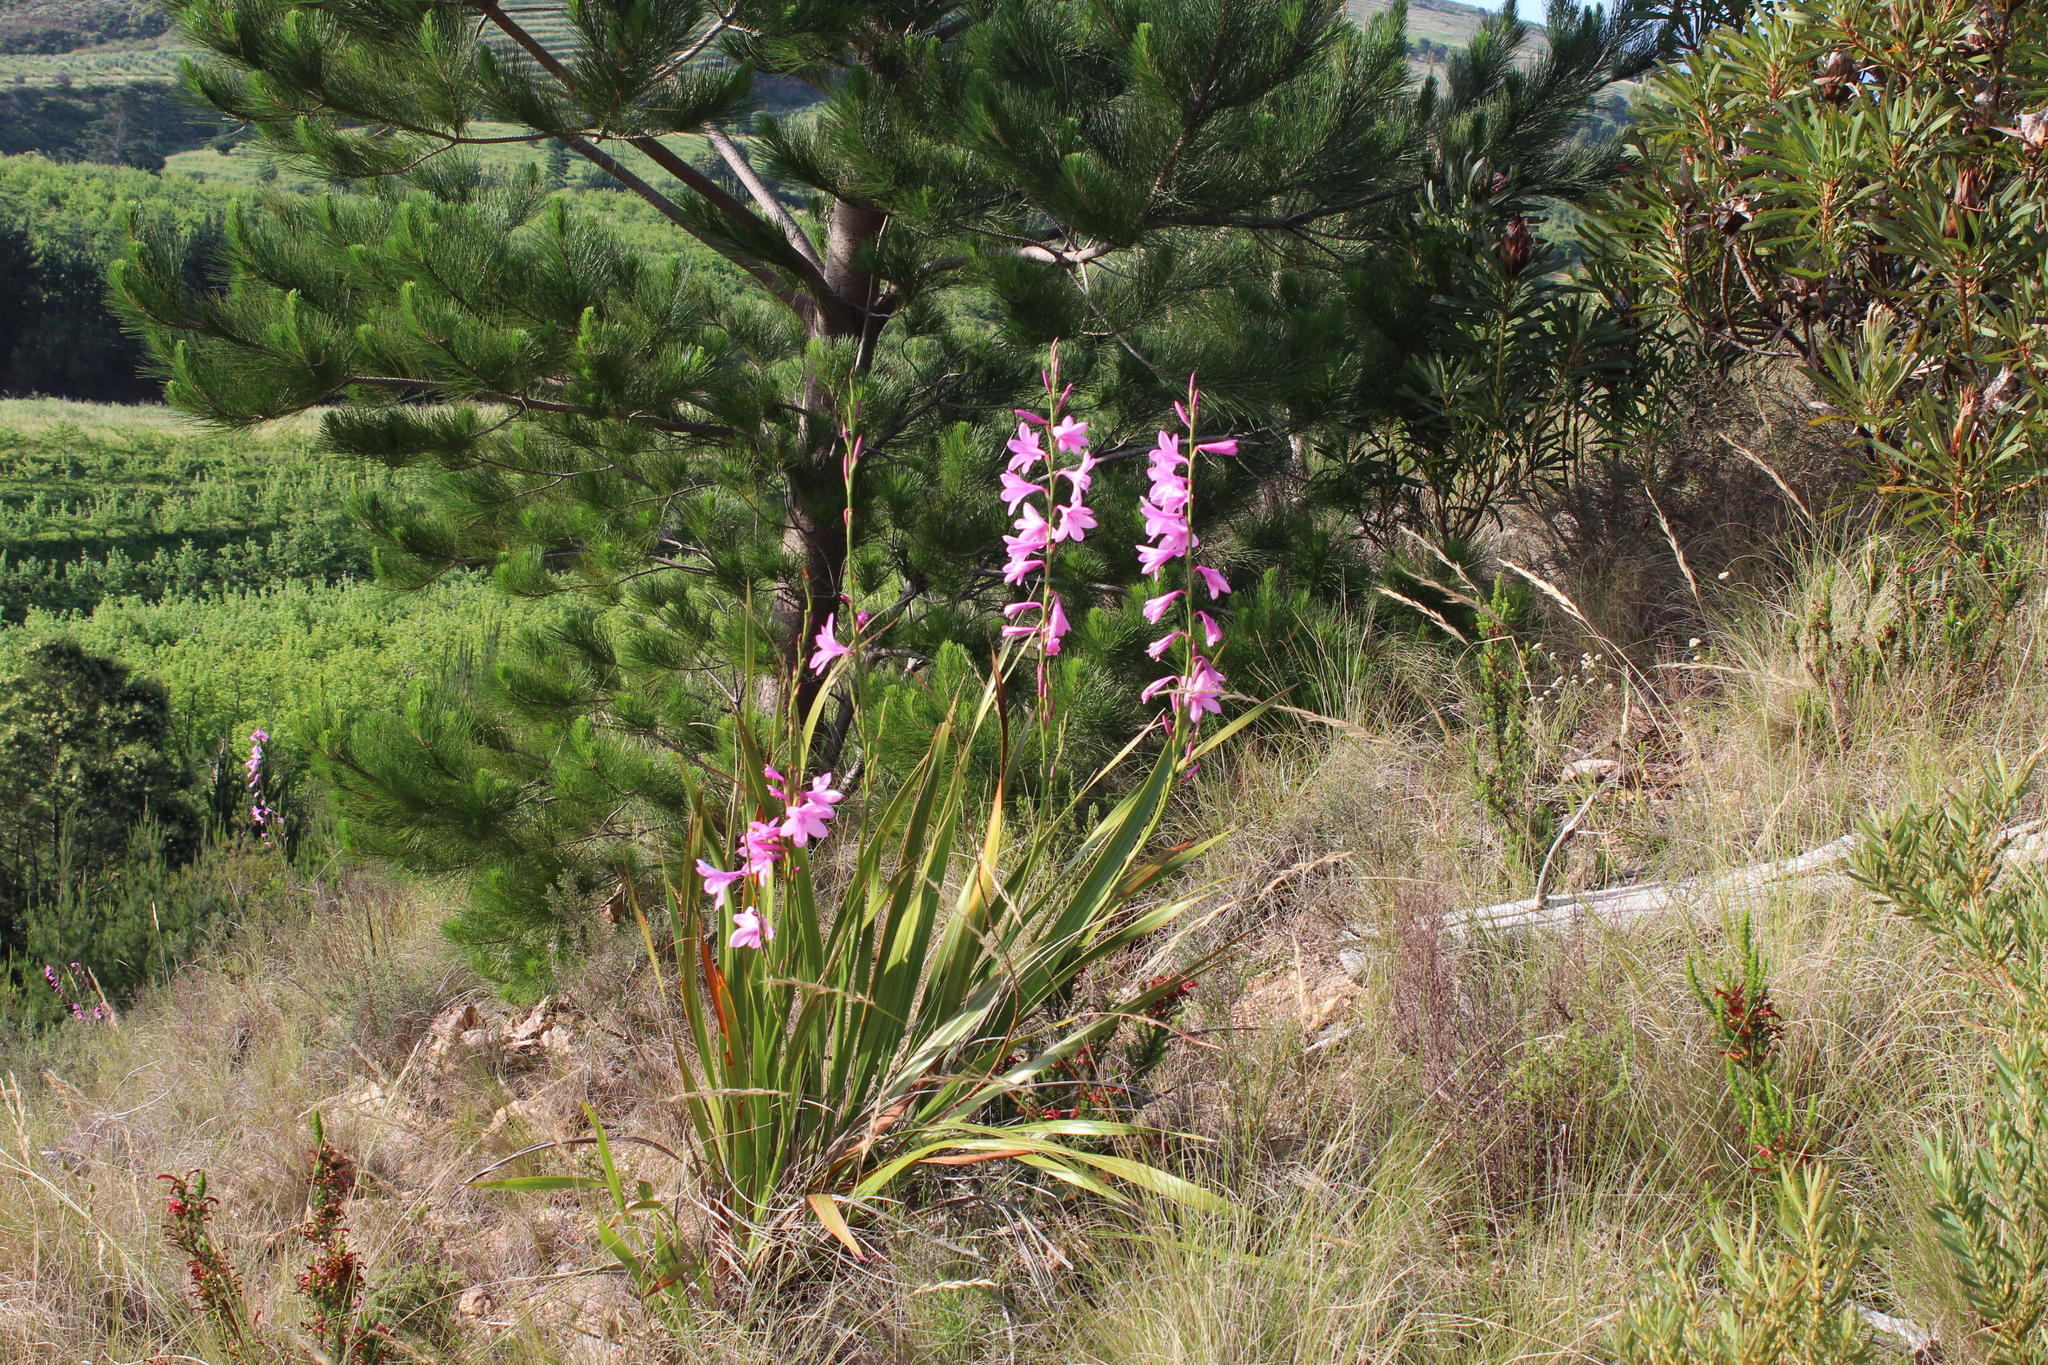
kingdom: Plantae
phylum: Tracheophyta
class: Liliopsida
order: Asparagales
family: Iridaceae
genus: Watsonia
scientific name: Watsonia borbonica
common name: Bugle-lily
